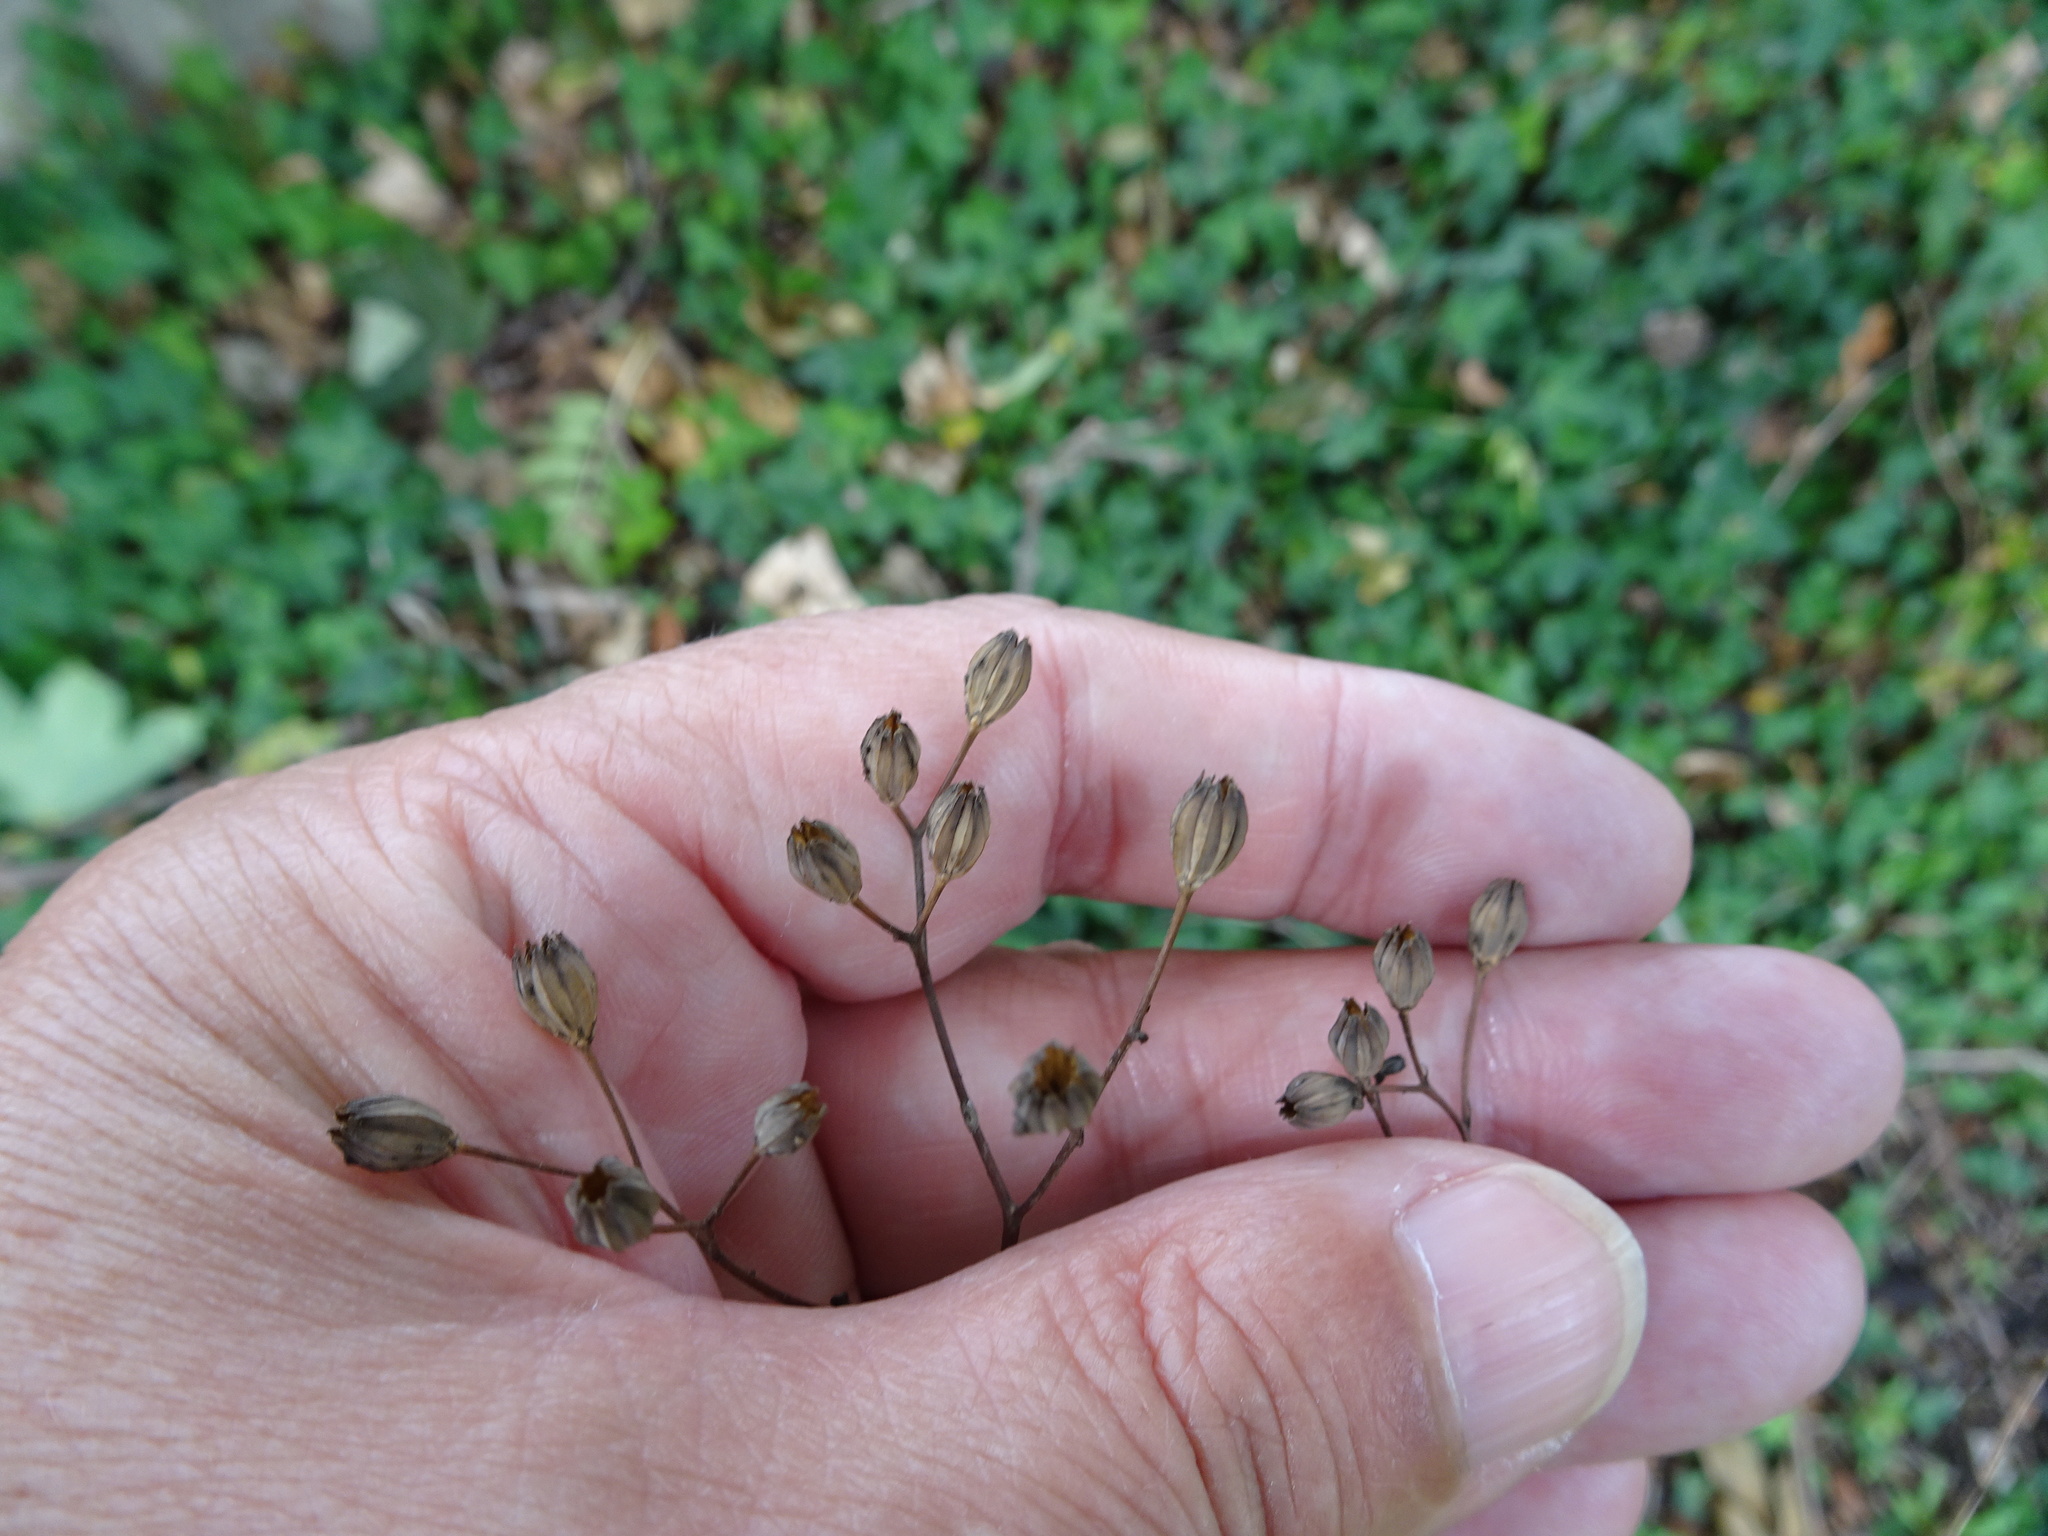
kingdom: Plantae
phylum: Tracheophyta
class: Magnoliopsida
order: Asterales
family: Asteraceae
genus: Lapsana
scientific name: Lapsana communis
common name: Nipplewort
